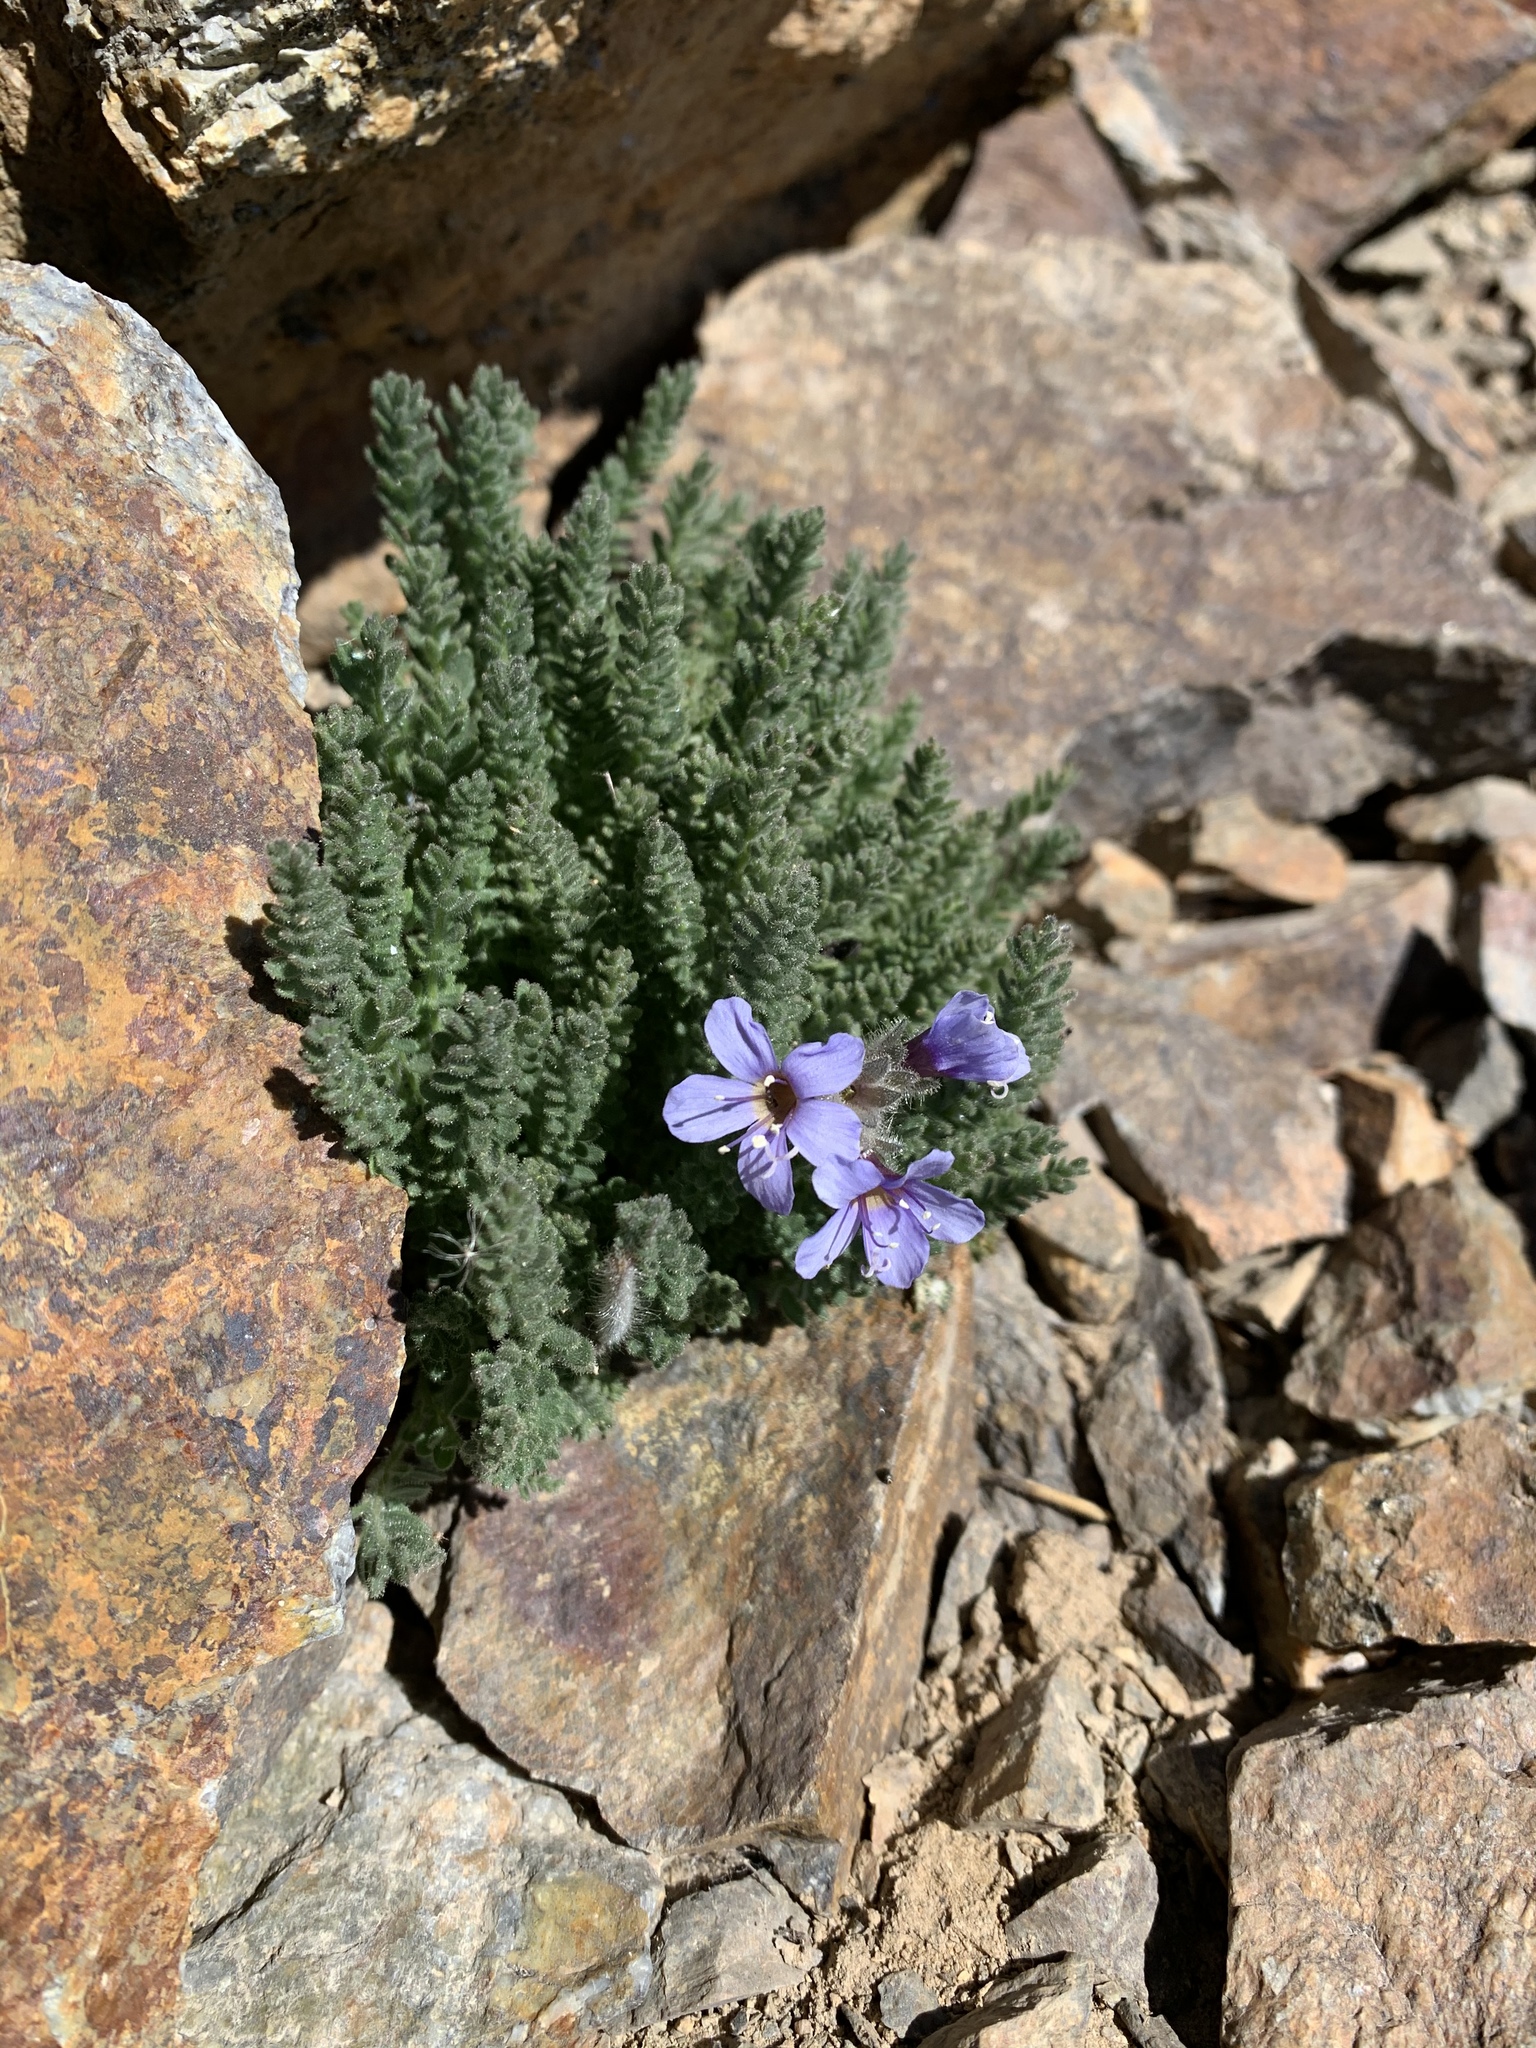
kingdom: Plantae
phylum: Tracheophyta
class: Magnoliopsida
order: Ericales
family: Polemoniaceae
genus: Polemonium
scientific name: Polemonium chartaceum
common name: Mason's sky-pilot
